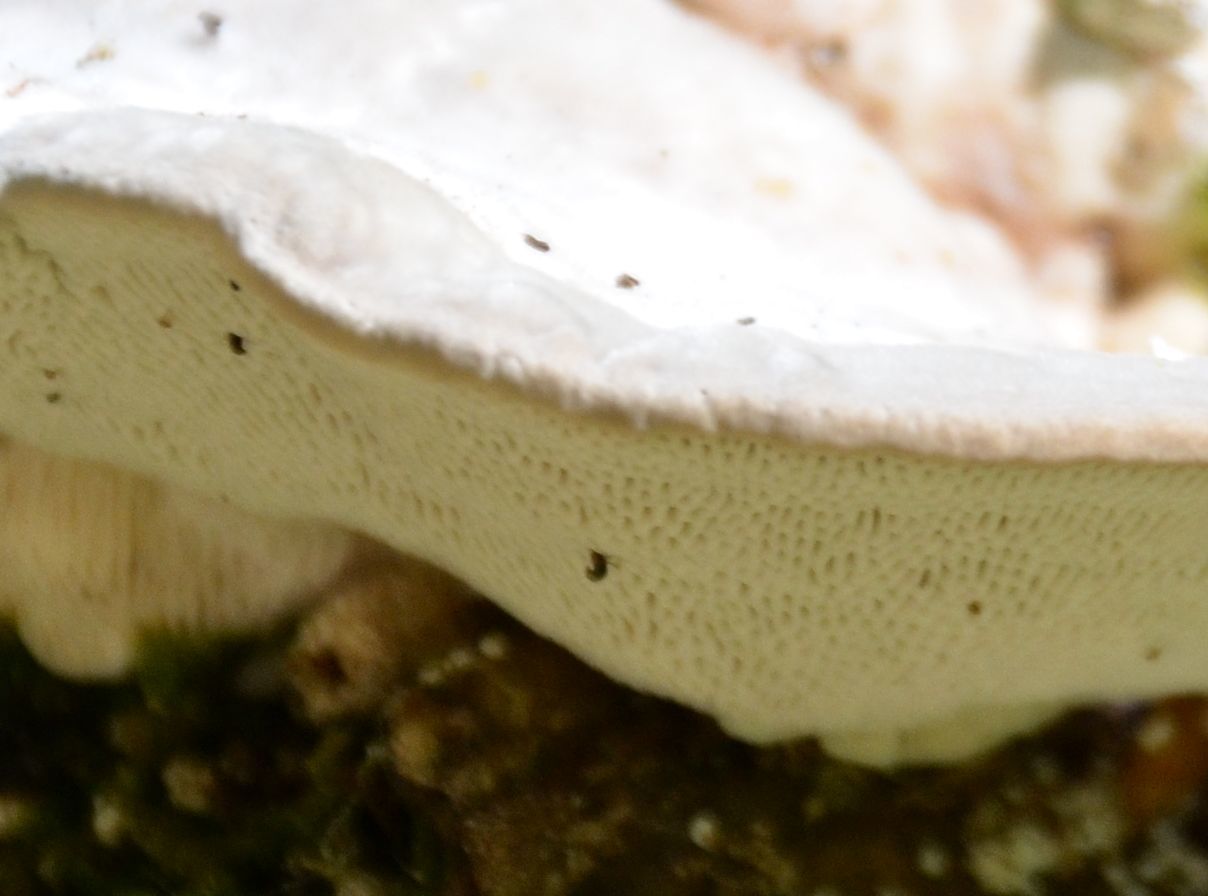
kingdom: Fungi
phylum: Basidiomycota
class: Agaricomycetes
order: Polyporales
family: Polyporaceae
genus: Trametes
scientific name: Trametes gibbosa
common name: Lumpy bracket
